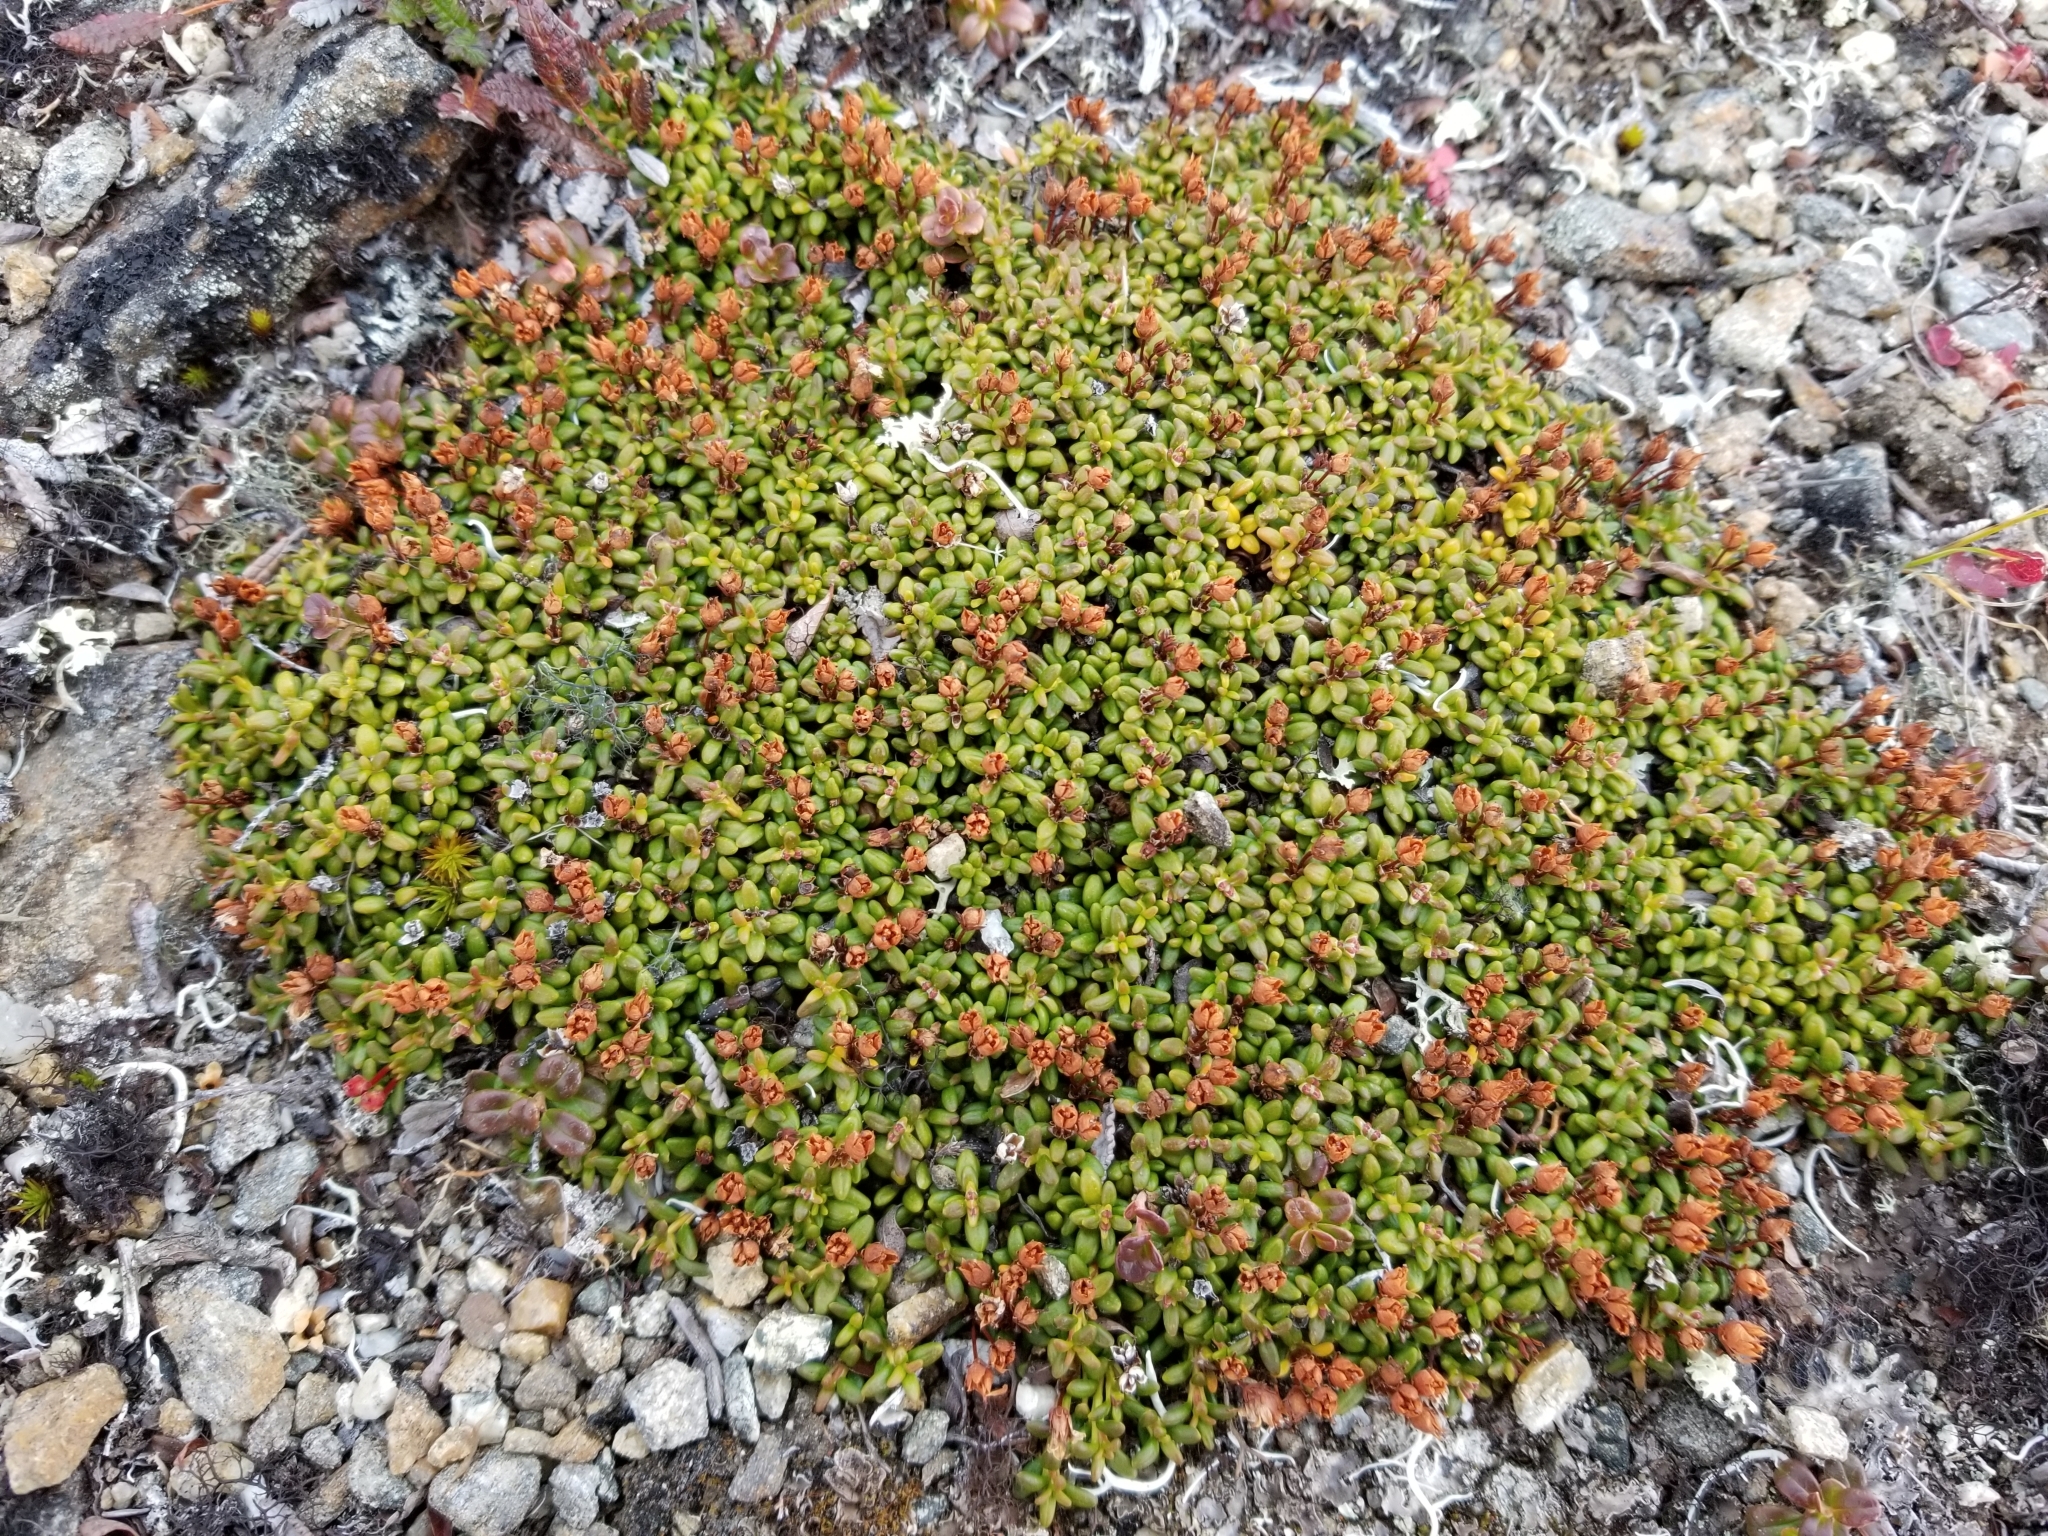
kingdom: Plantae
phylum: Tracheophyta
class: Magnoliopsida
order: Ericales
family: Ericaceae
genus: Kalmia
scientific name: Kalmia procumbens
